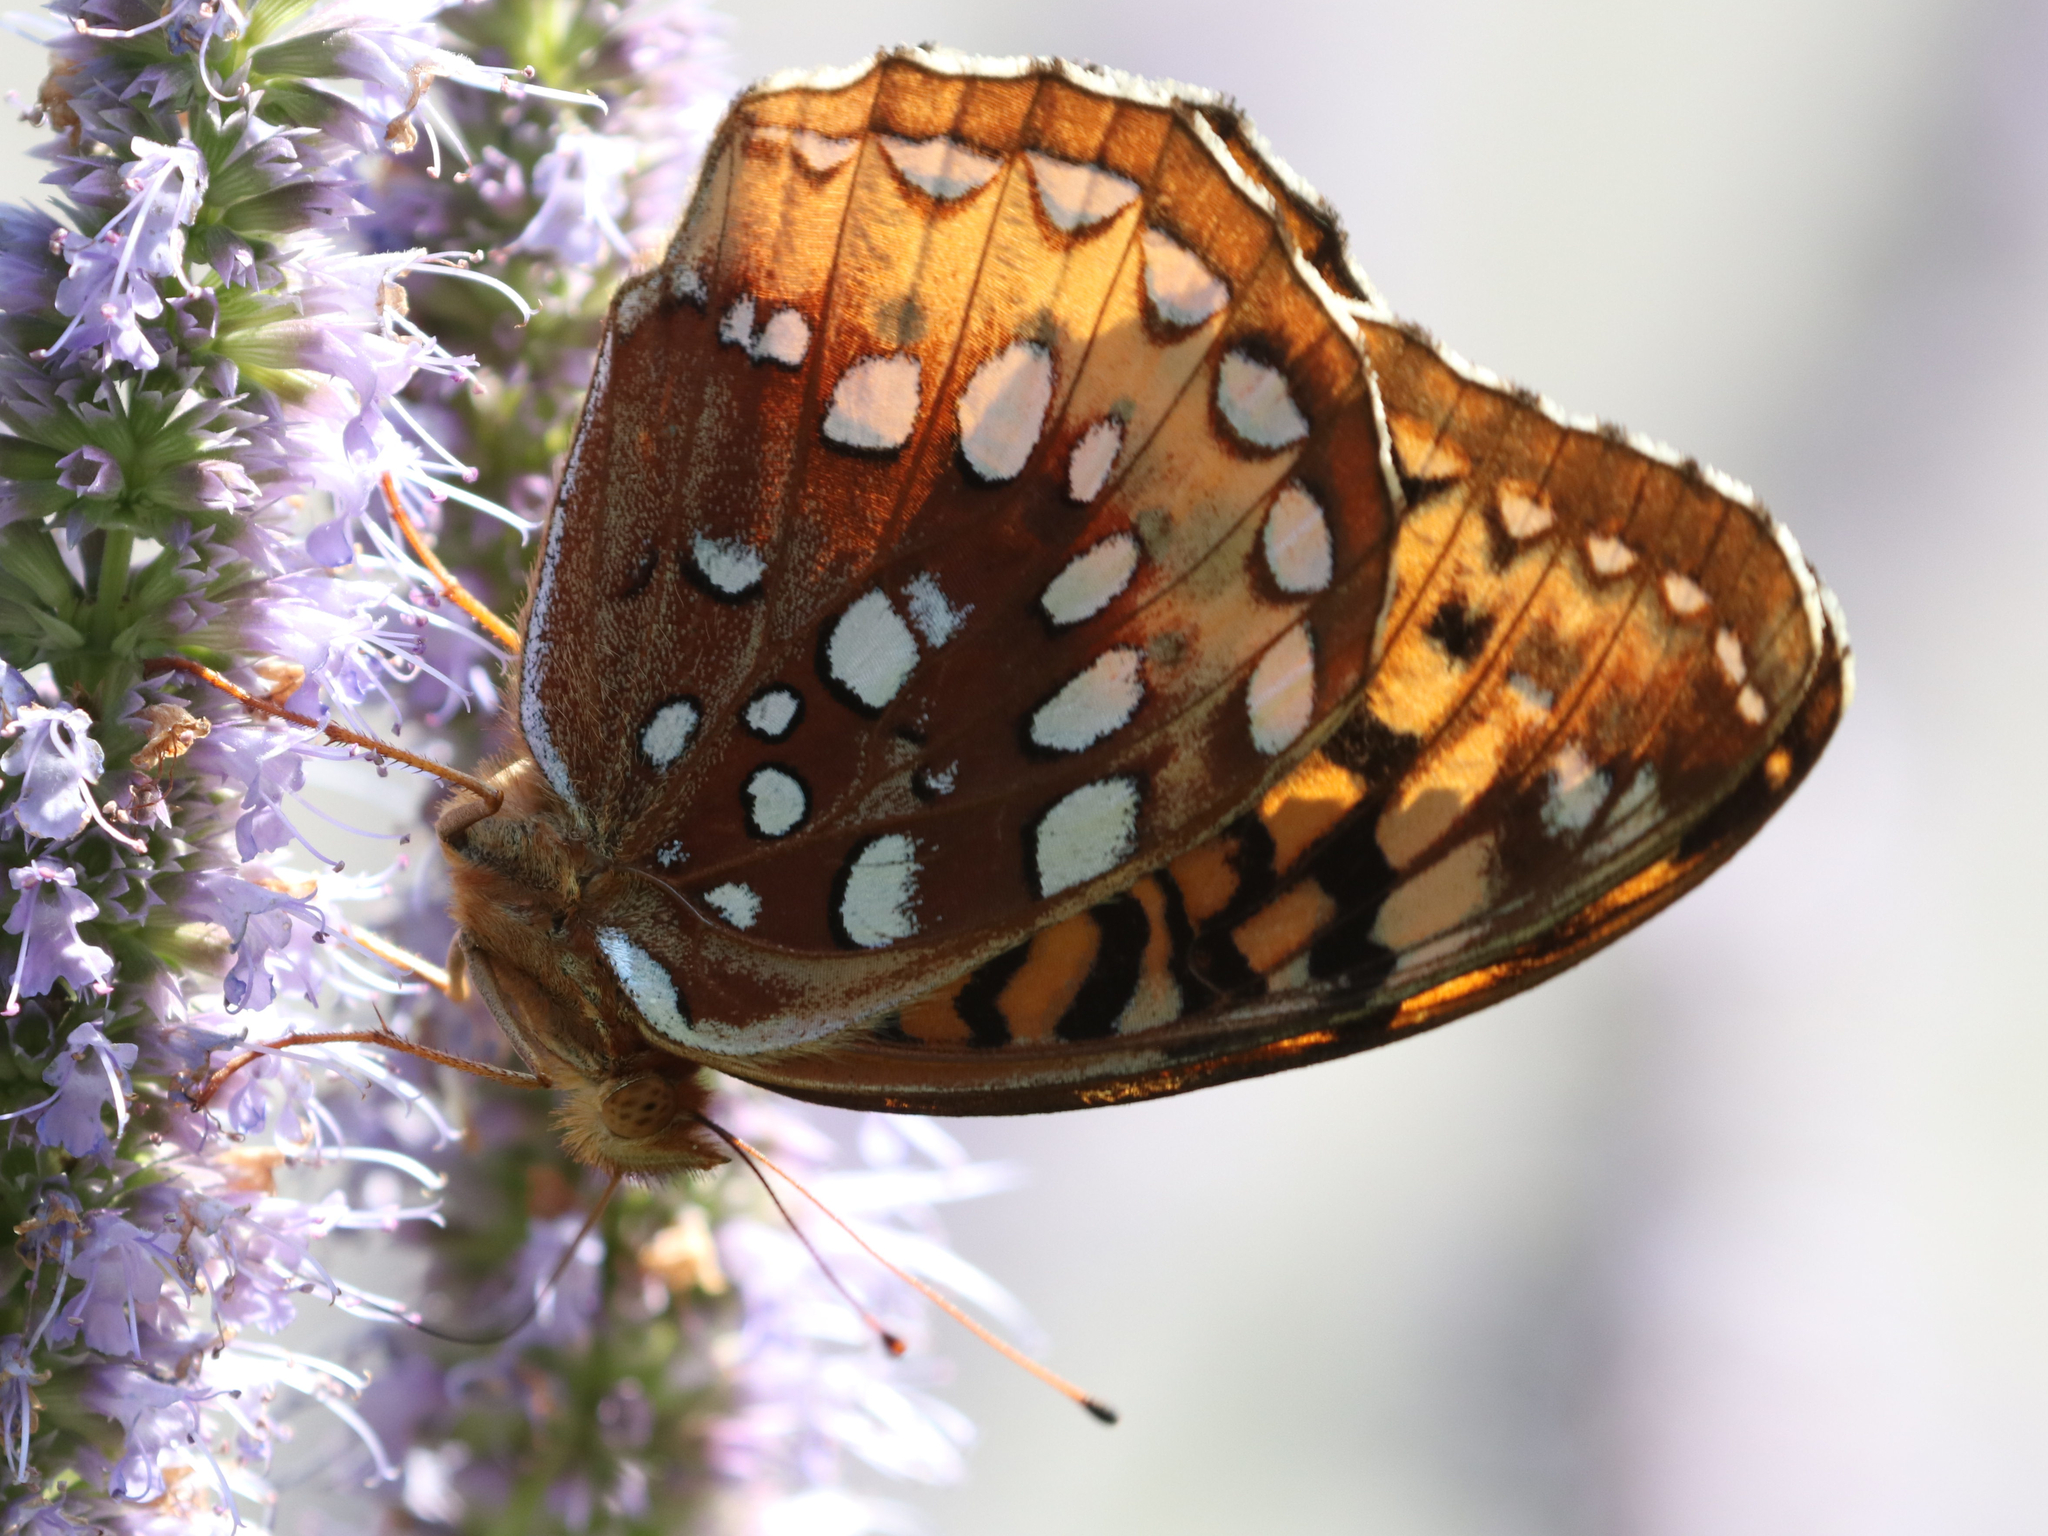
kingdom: Animalia
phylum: Arthropoda
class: Insecta
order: Lepidoptera
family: Nymphalidae
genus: Speyeria
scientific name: Speyeria cybele
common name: Great spangled fritillary
